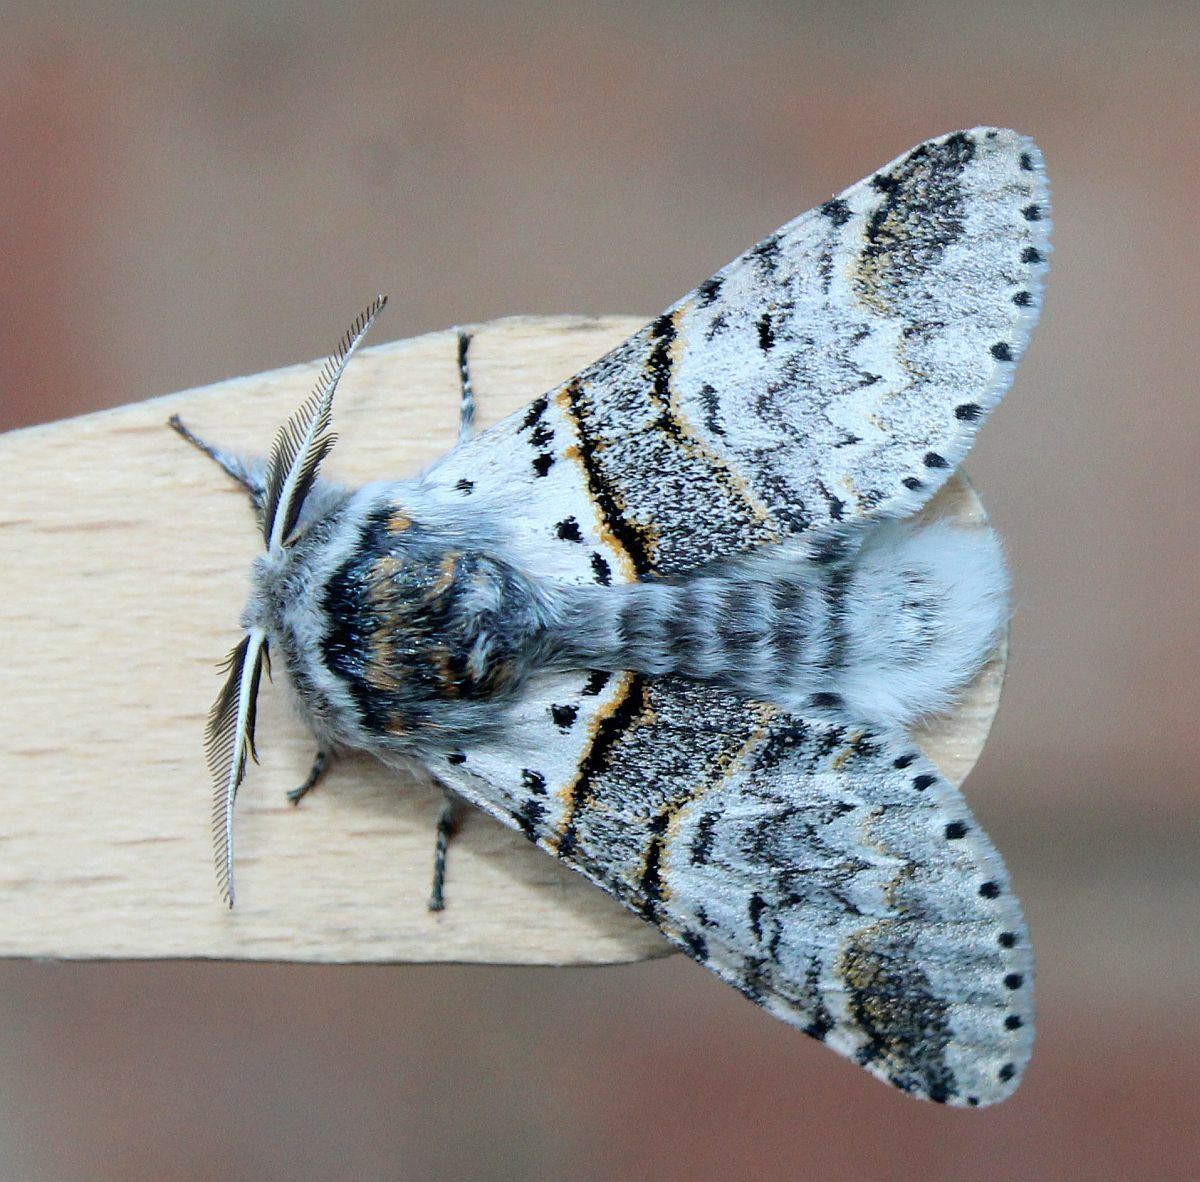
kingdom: Animalia
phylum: Arthropoda
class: Insecta
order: Lepidoptera
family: Notodontidae
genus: Furcula
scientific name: Furcula bifida
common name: Poplar kitten
